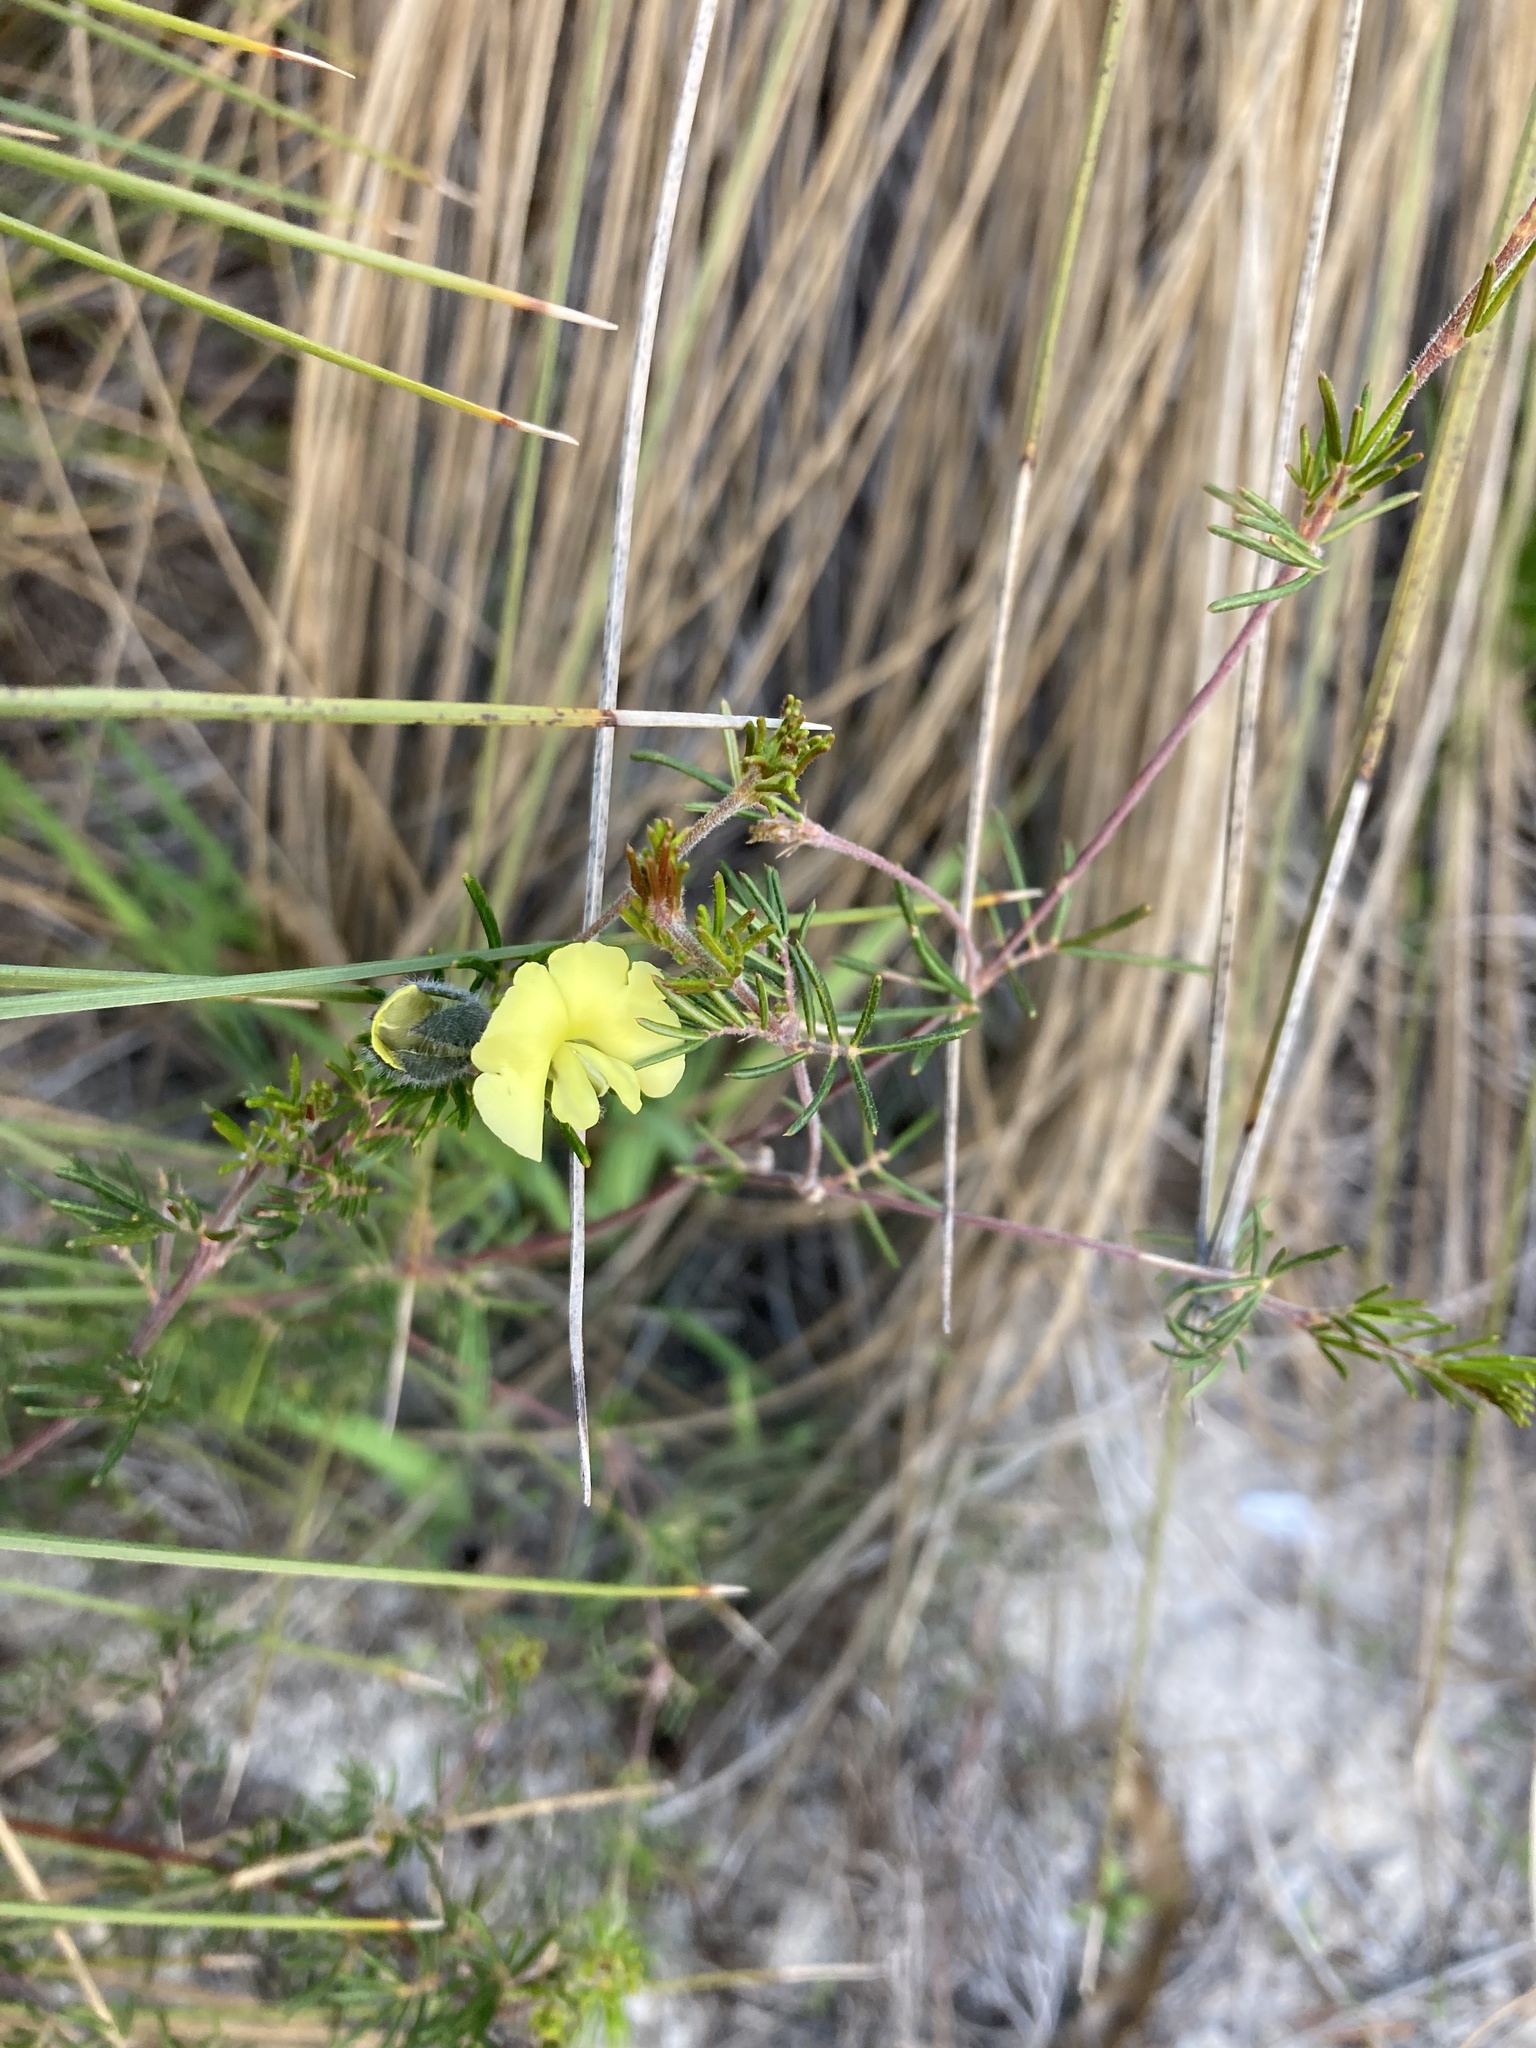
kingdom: Plantae
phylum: Tracheophyta
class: Magnoliopsida
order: Fabales
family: Fabaceae
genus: Gompholobium
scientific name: Gompholobium tomentosum
